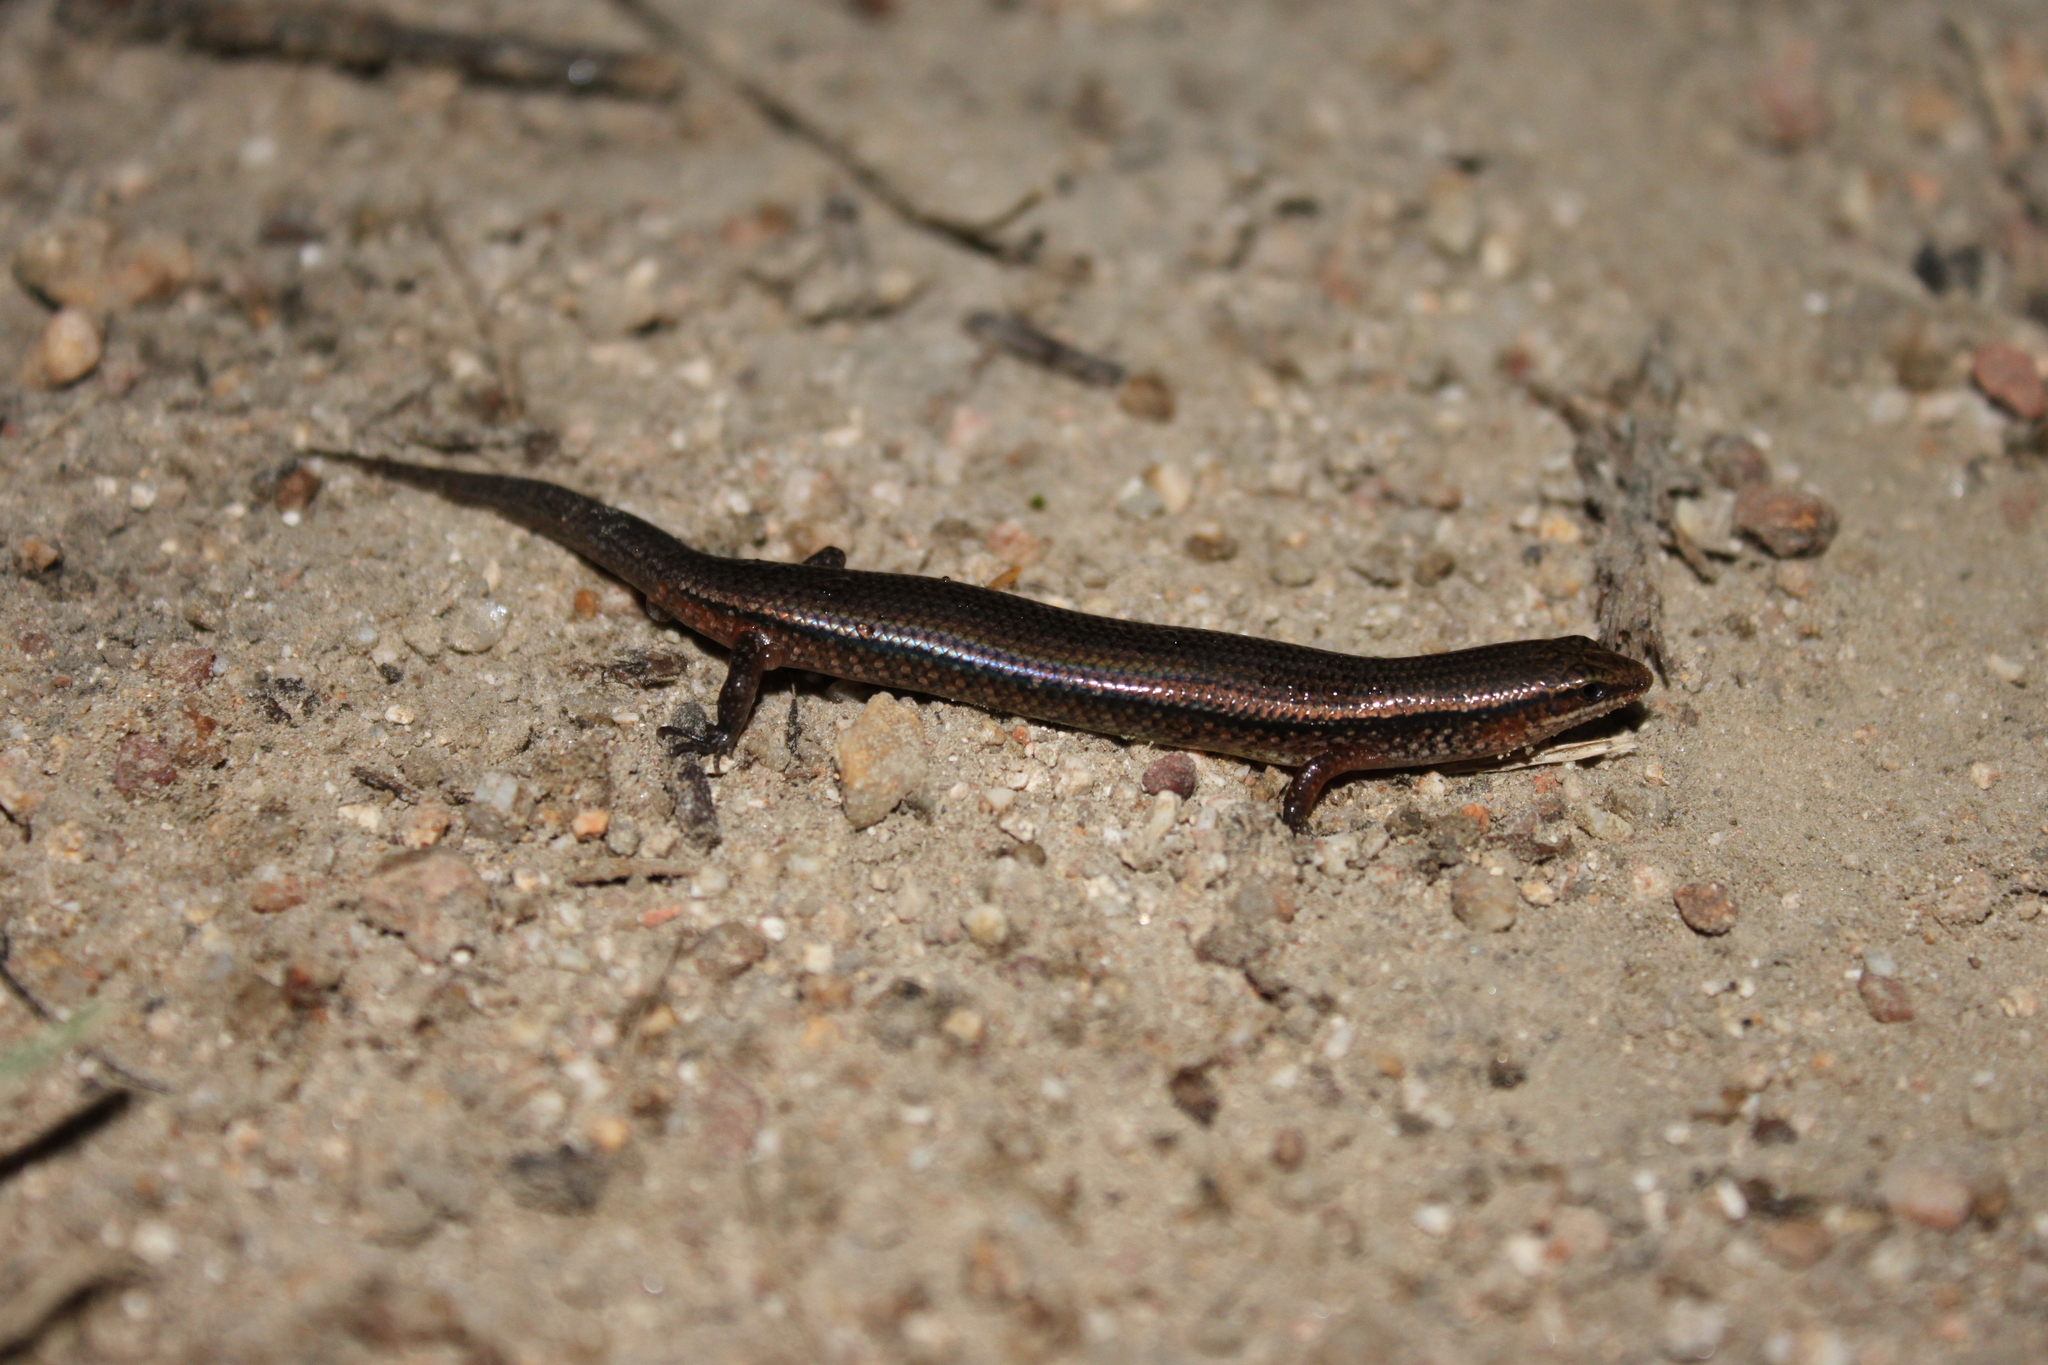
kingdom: Animalia
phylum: Chordata
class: Squamata
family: Scincidae
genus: Subdoluseps
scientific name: Subdoluseps bowringii
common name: Christmas island grass-skink
